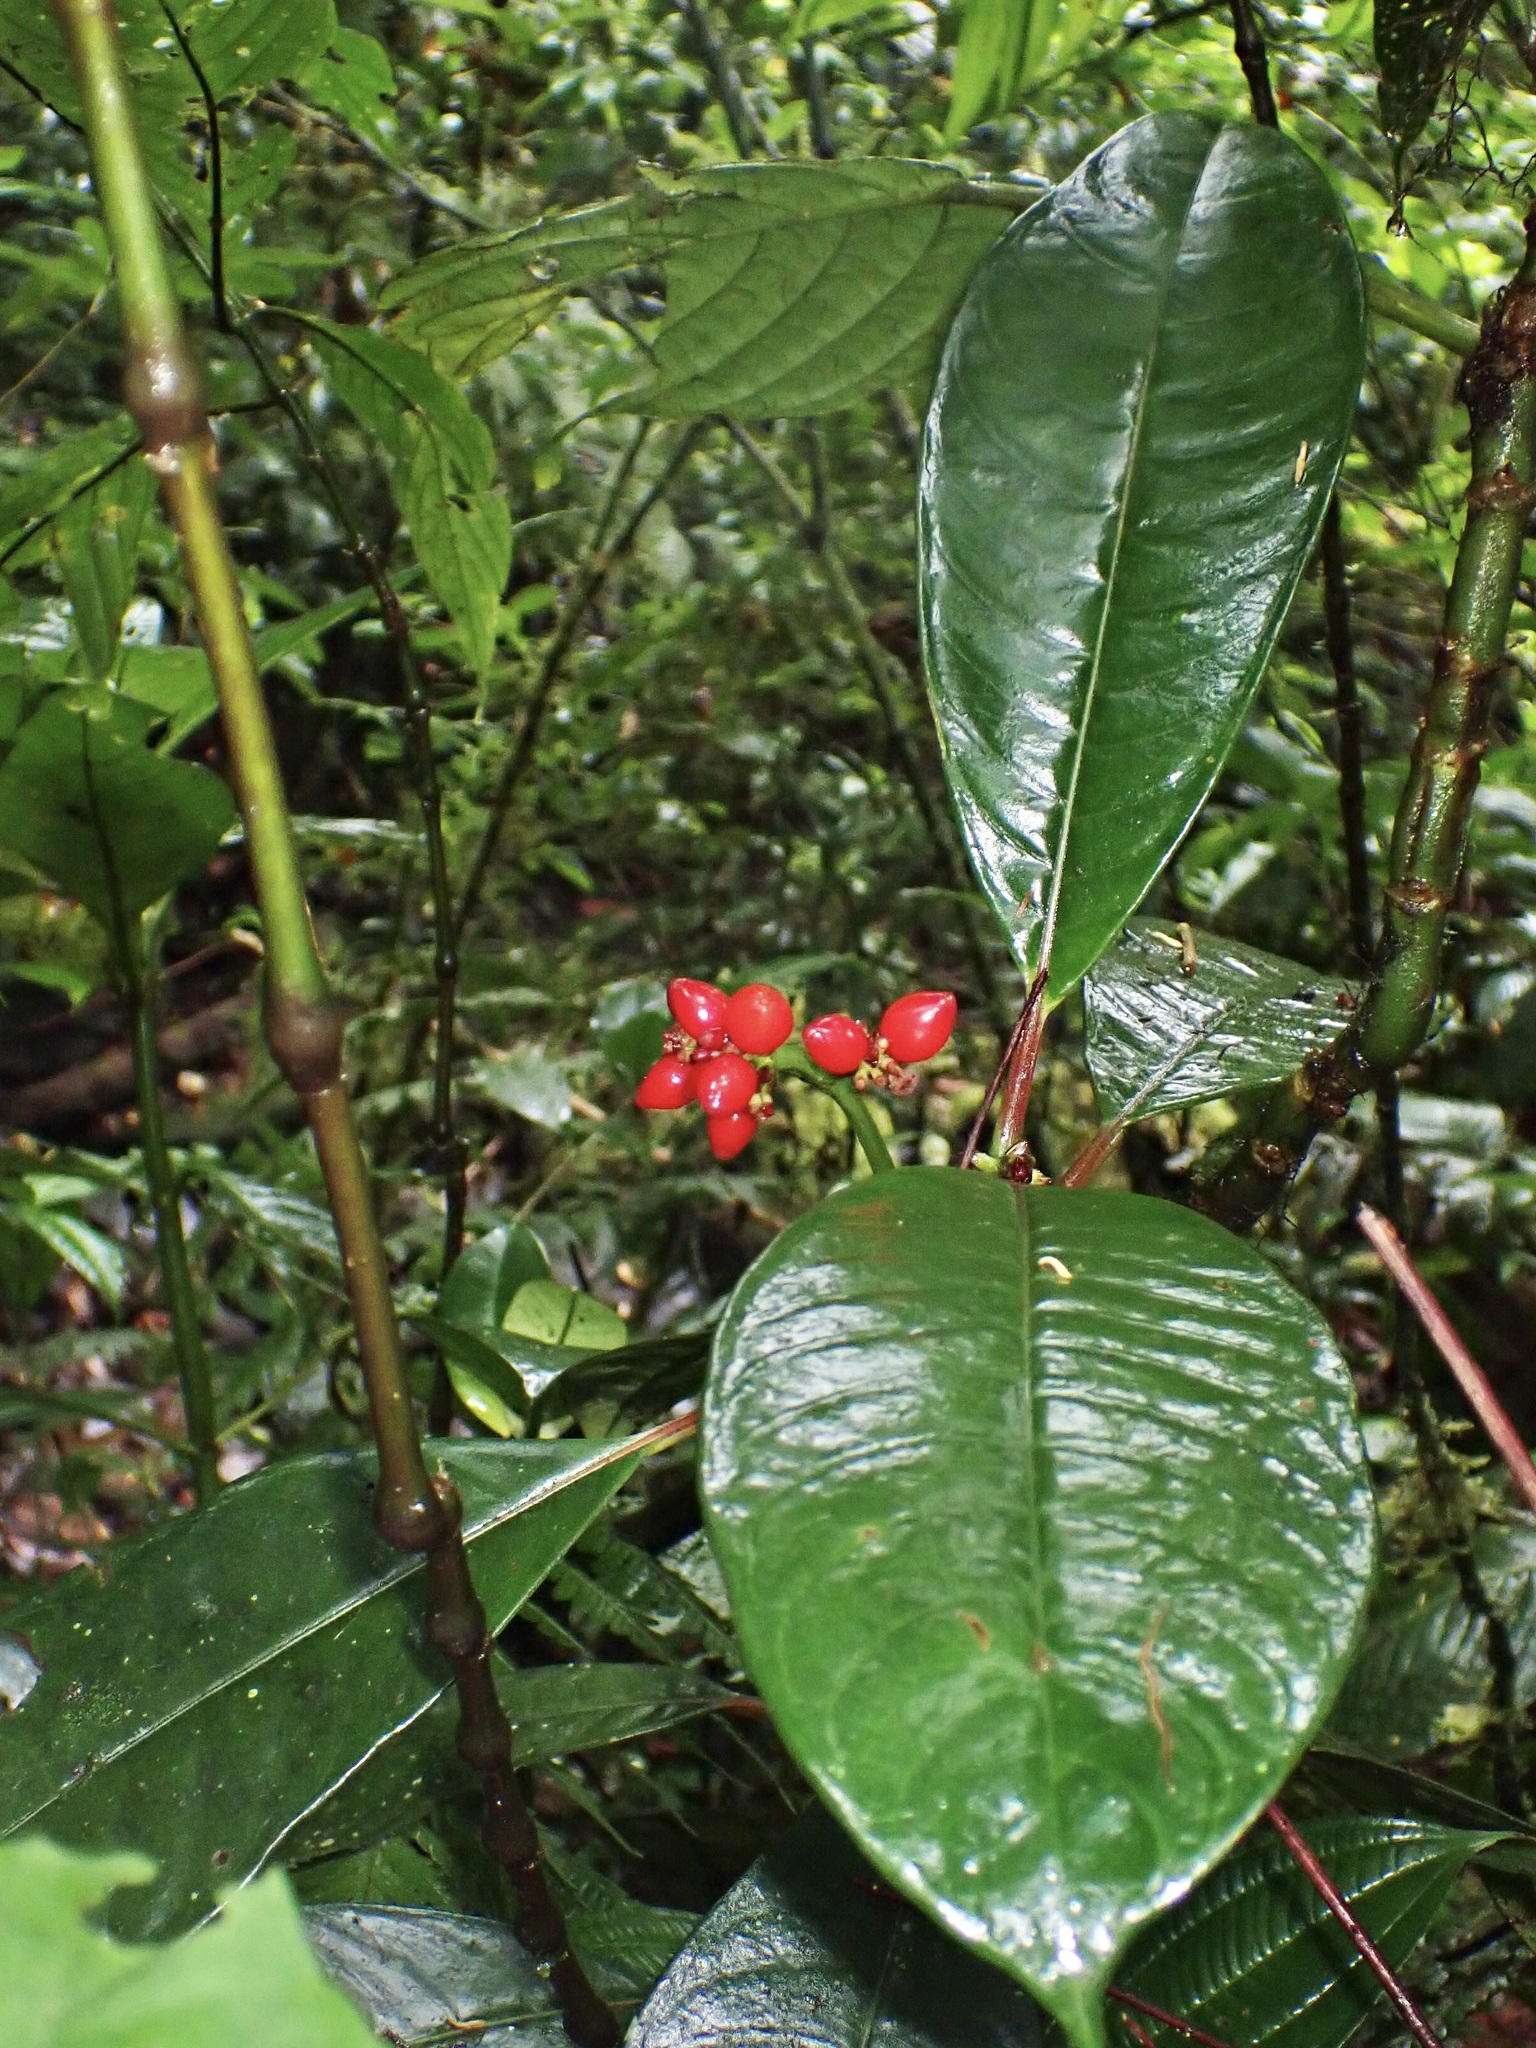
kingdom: Plantae
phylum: Tracheophyta
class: Magnoliopsida
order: Gentianales
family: Rubiaceae
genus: Notopleura
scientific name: Notopleura uliginosa
